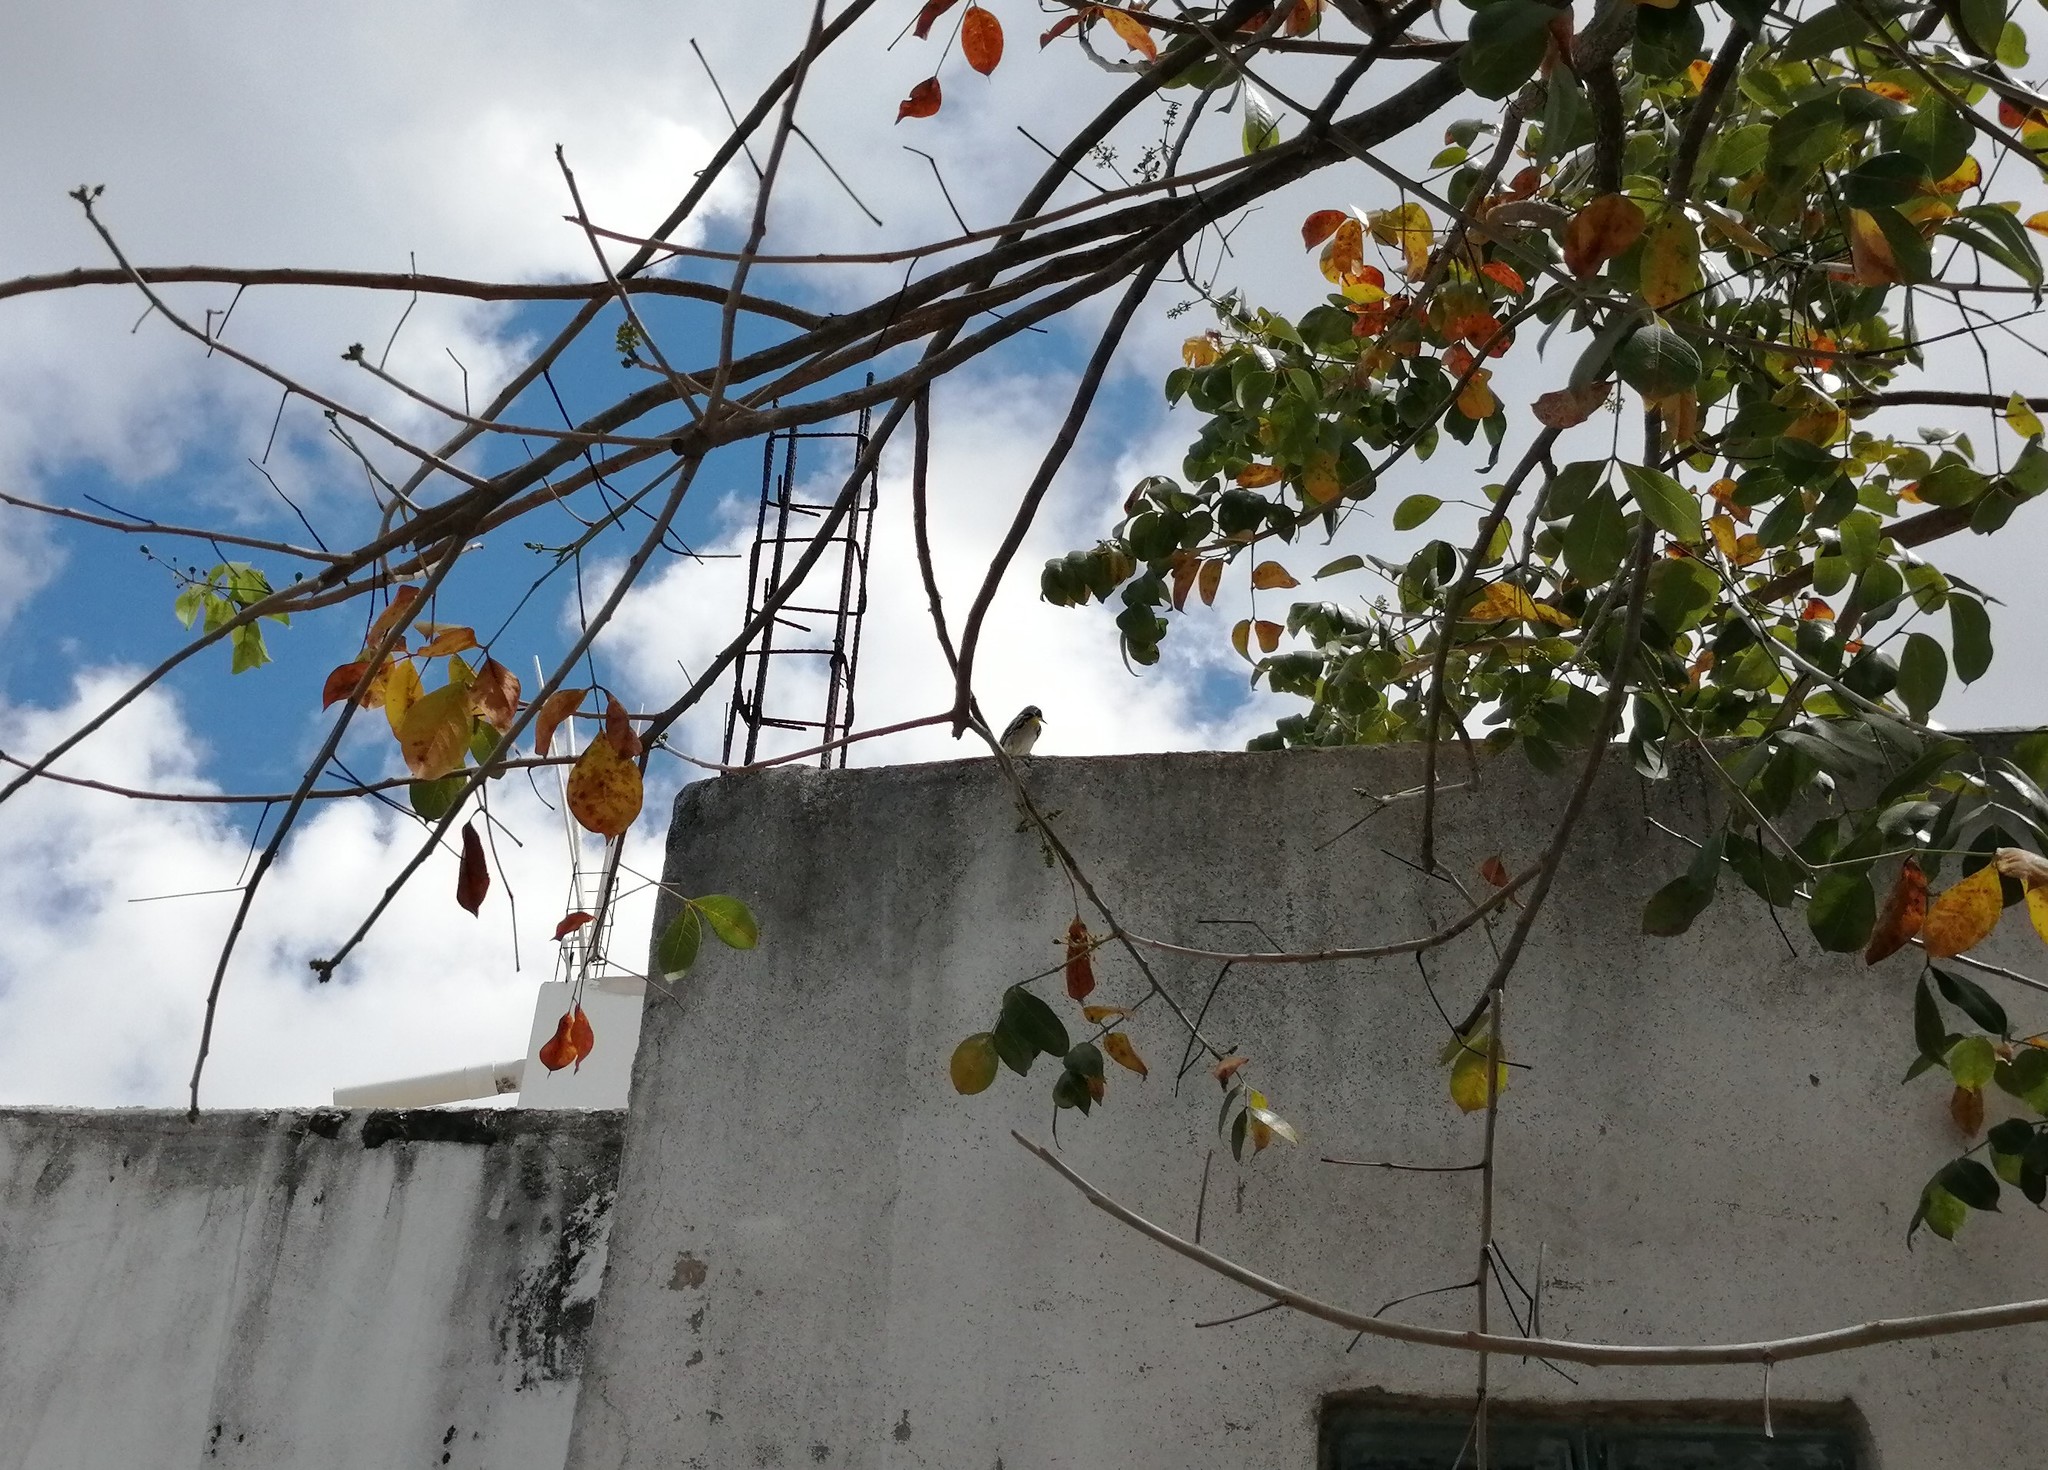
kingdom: Animalia
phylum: Chordata
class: Aves
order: Passeriformes
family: Parulidae
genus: Setophaga
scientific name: Setophaga dominica
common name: Yellow-throated warbler
